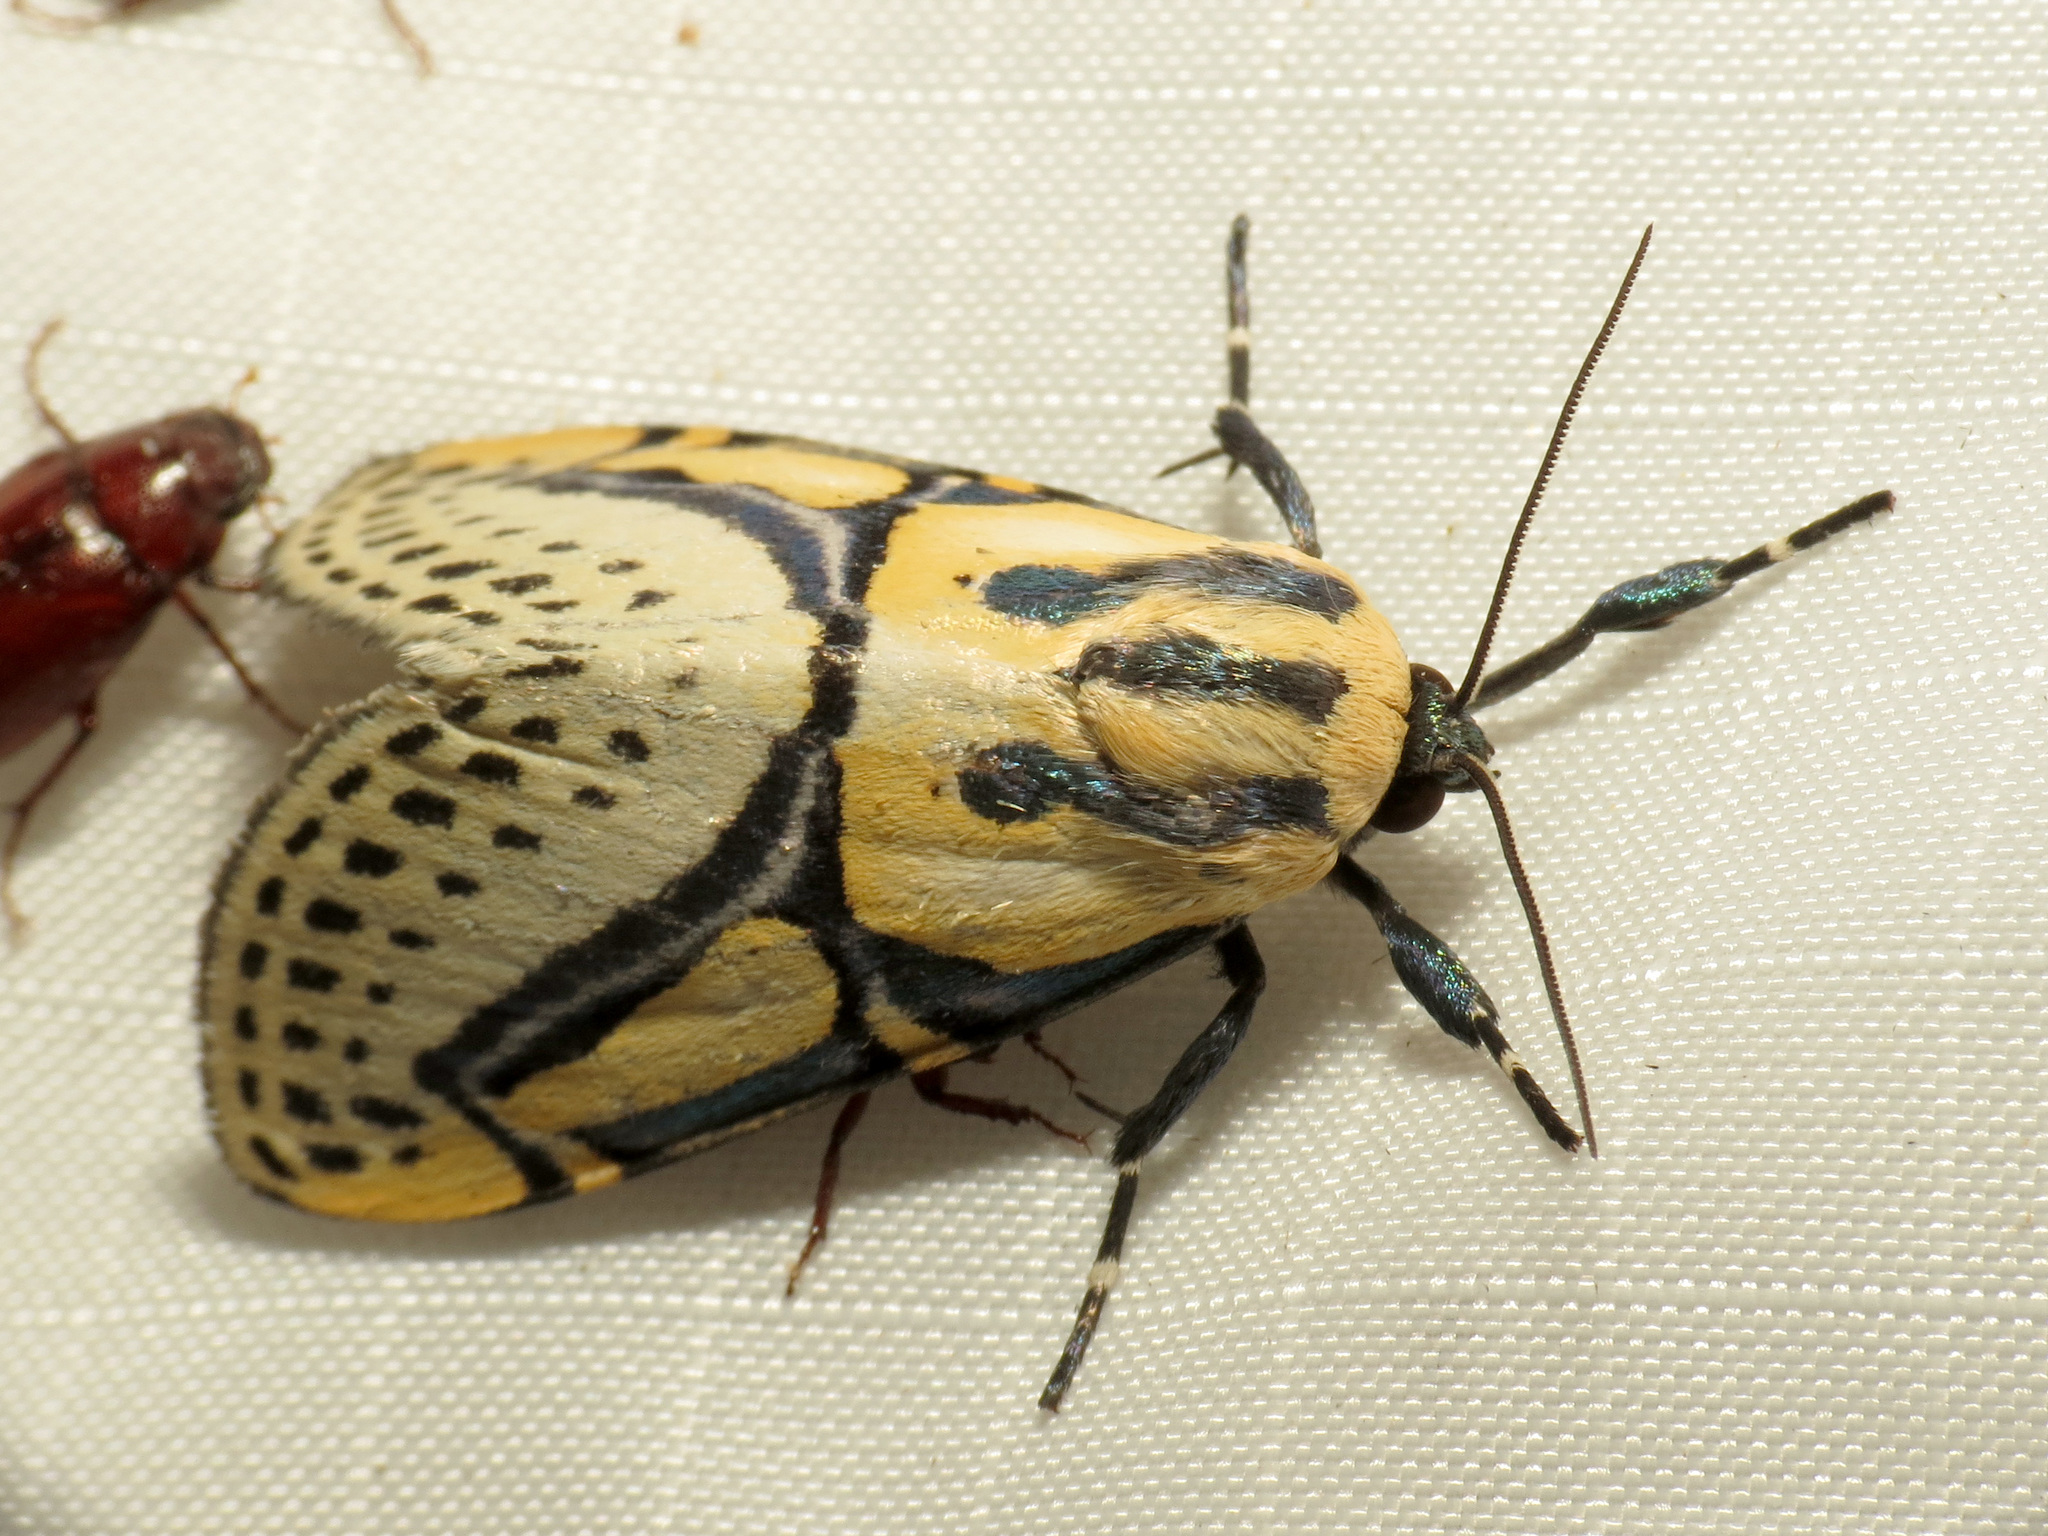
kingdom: Animalia
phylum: Arthropoda
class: Insecta
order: Lepidoptera
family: Erebidae
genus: Diphthera
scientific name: Diphthera festiva
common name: Hieroglyphic moth
